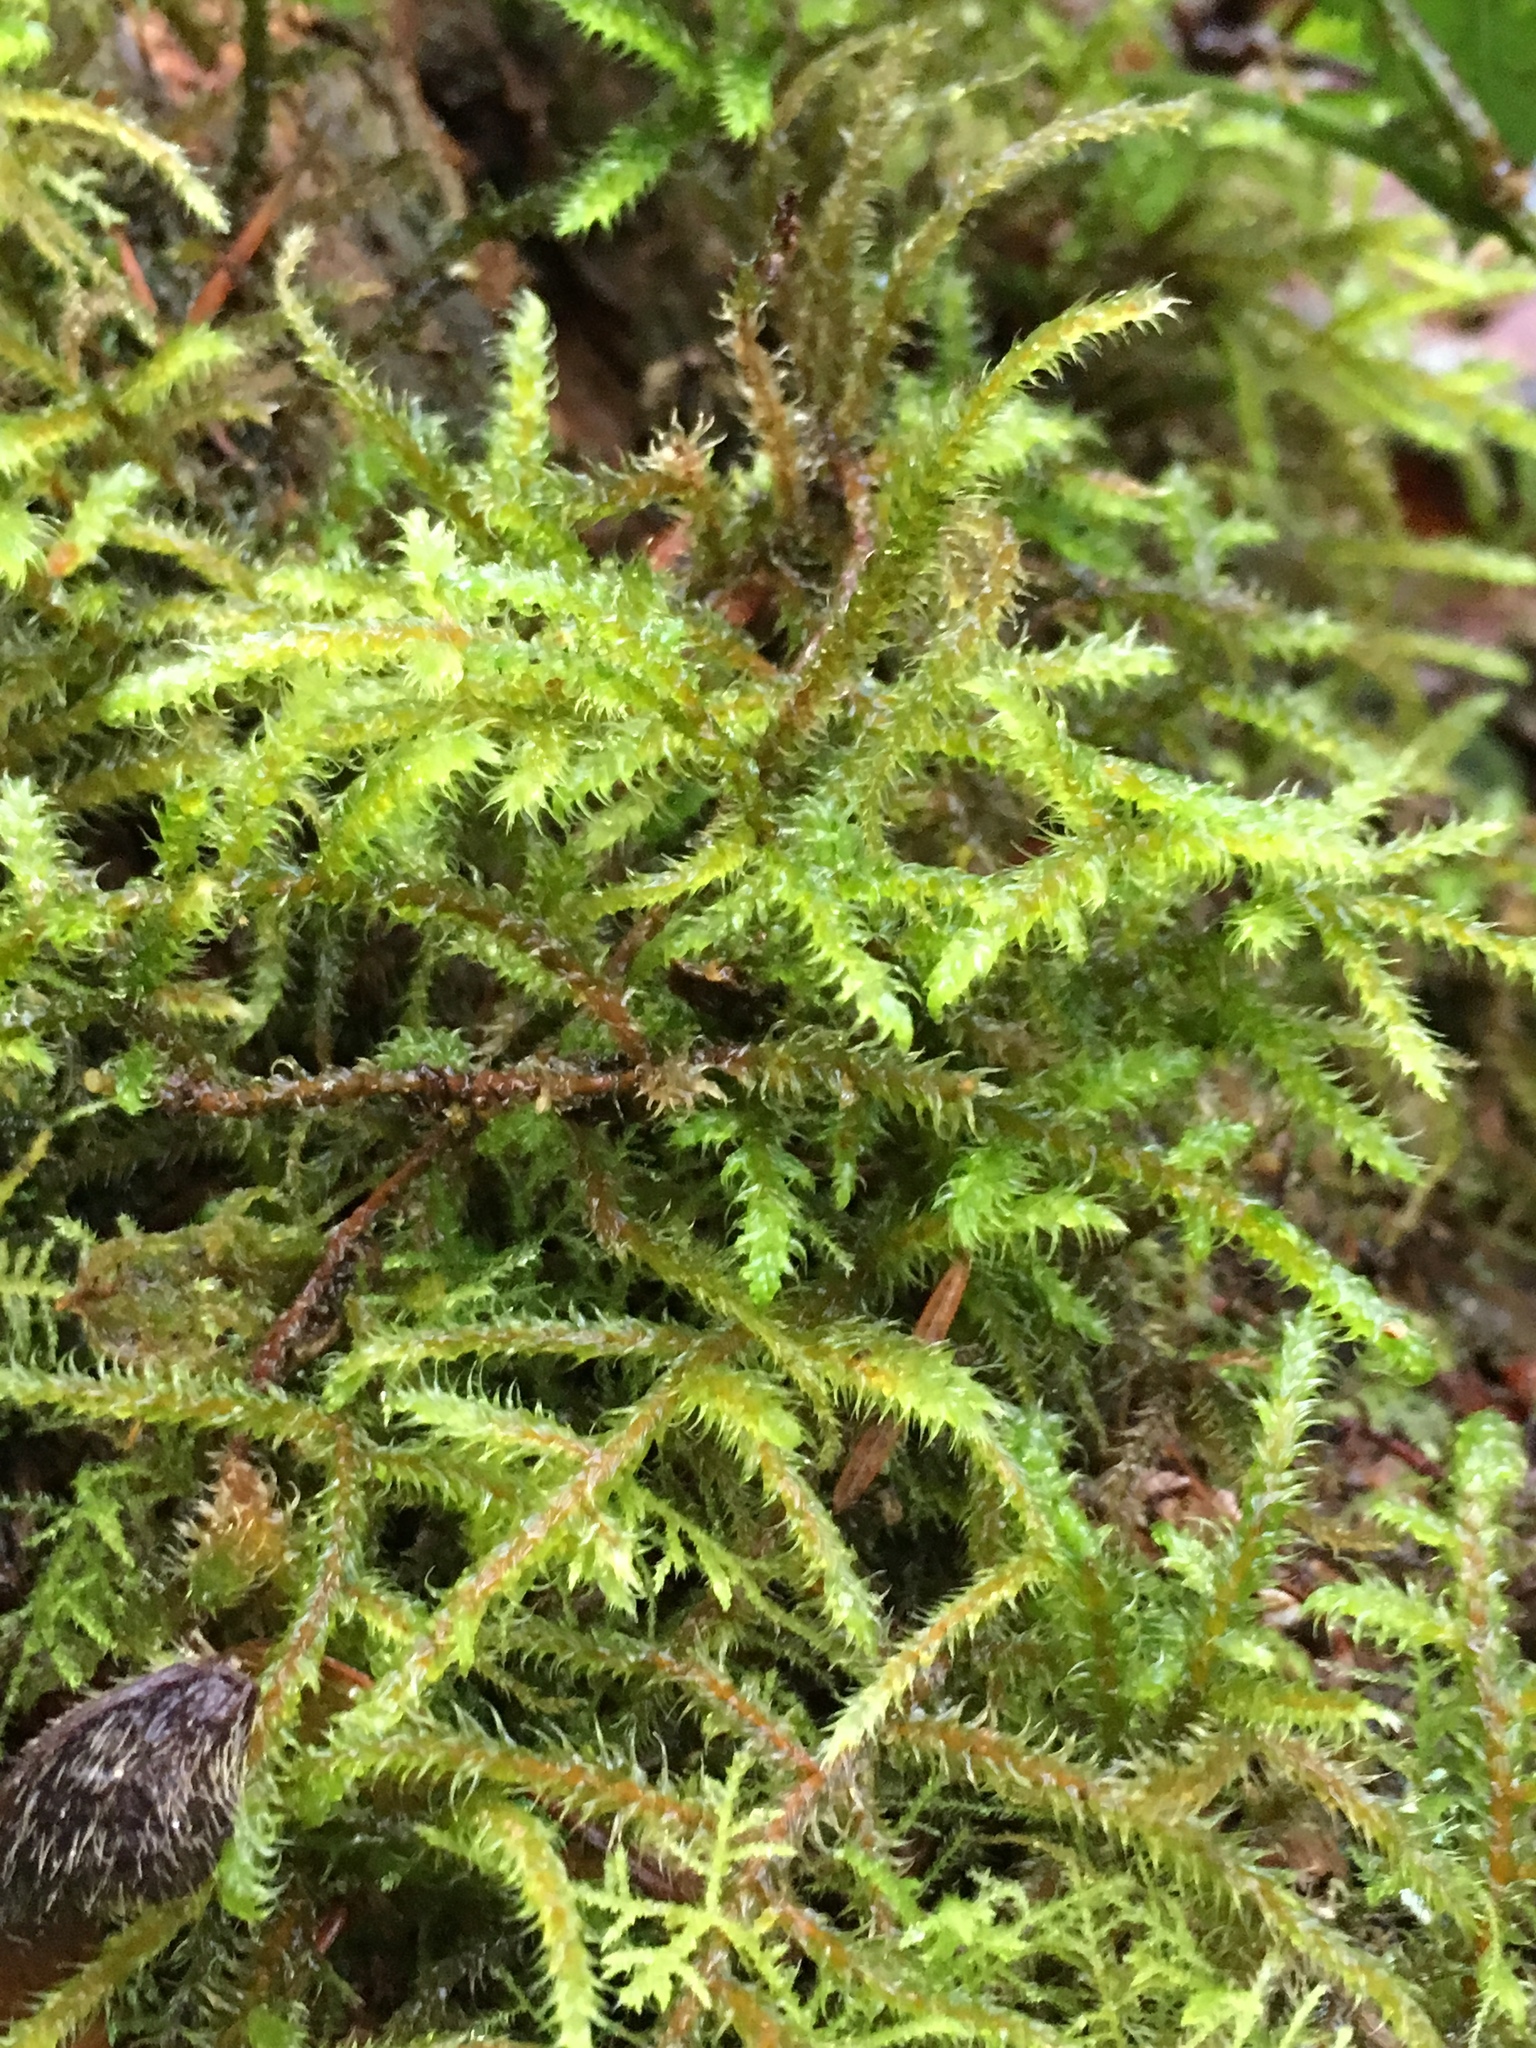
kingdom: Plantae
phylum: Bryophyta
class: Bryopsida
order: Hypnales
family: Hylocomiaceae
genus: Rhytidiadelphus
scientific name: Rhytidiadelphus loreus
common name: Lanky moss
